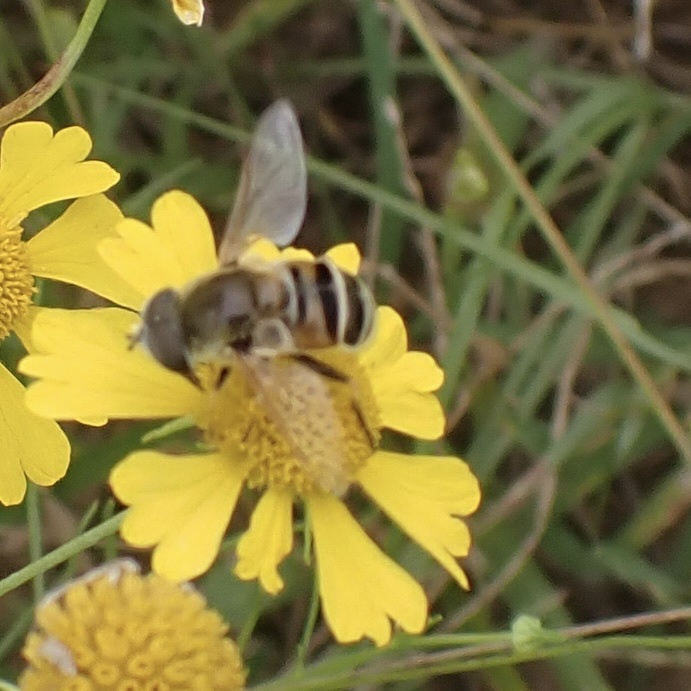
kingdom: Animalia
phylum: Arthropoda
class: Insecta
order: Diptera
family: Syrphidae
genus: Eristalis
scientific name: Eristalis stipator
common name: Yellow-shouldered drone fly
